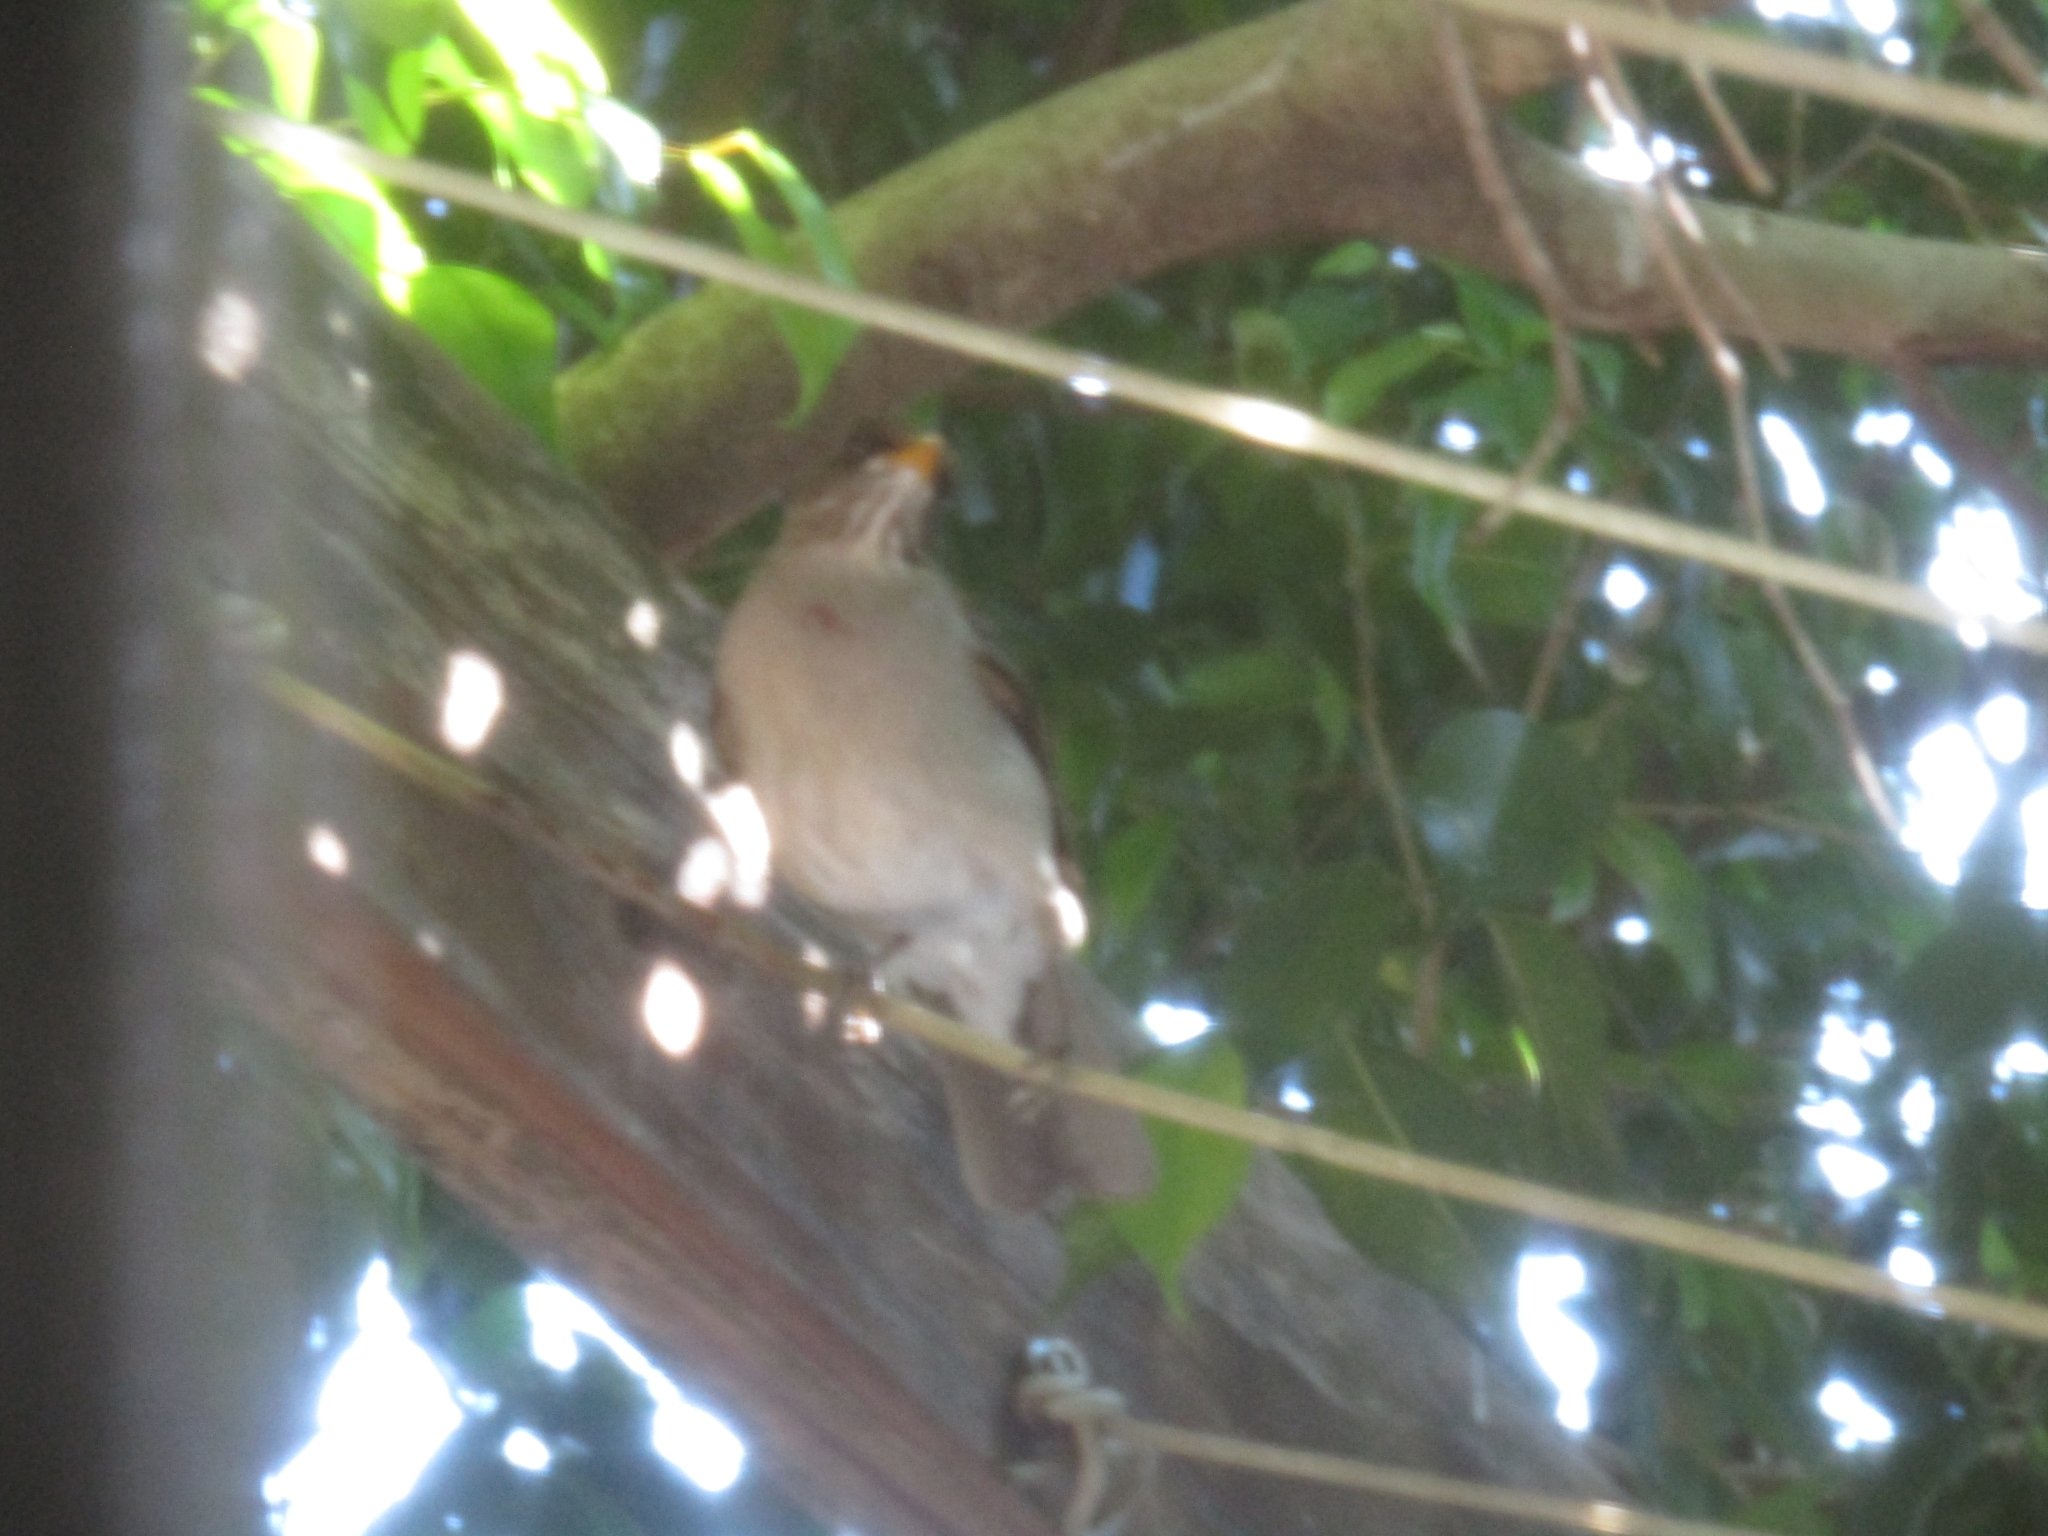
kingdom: Animalia
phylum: Chordata
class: Aves
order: Passeriformes
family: Turdidae
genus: Turdus
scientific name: Turdus amaurochalinus
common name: Creamy-bellied thrush
